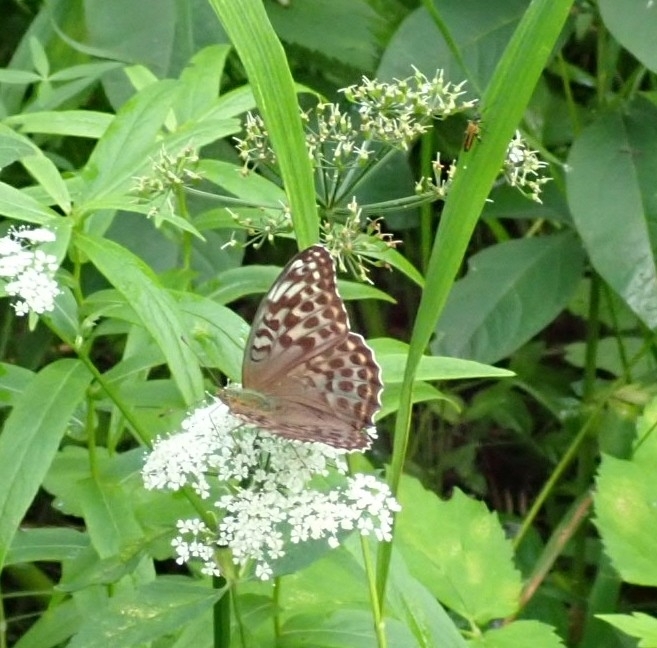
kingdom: Animalia
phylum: Arthropoda
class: Insecta
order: Lepidoptera
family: Nymphalidae
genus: Argynnis
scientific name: Argynnis paphia
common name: Silver-washed fritillary
